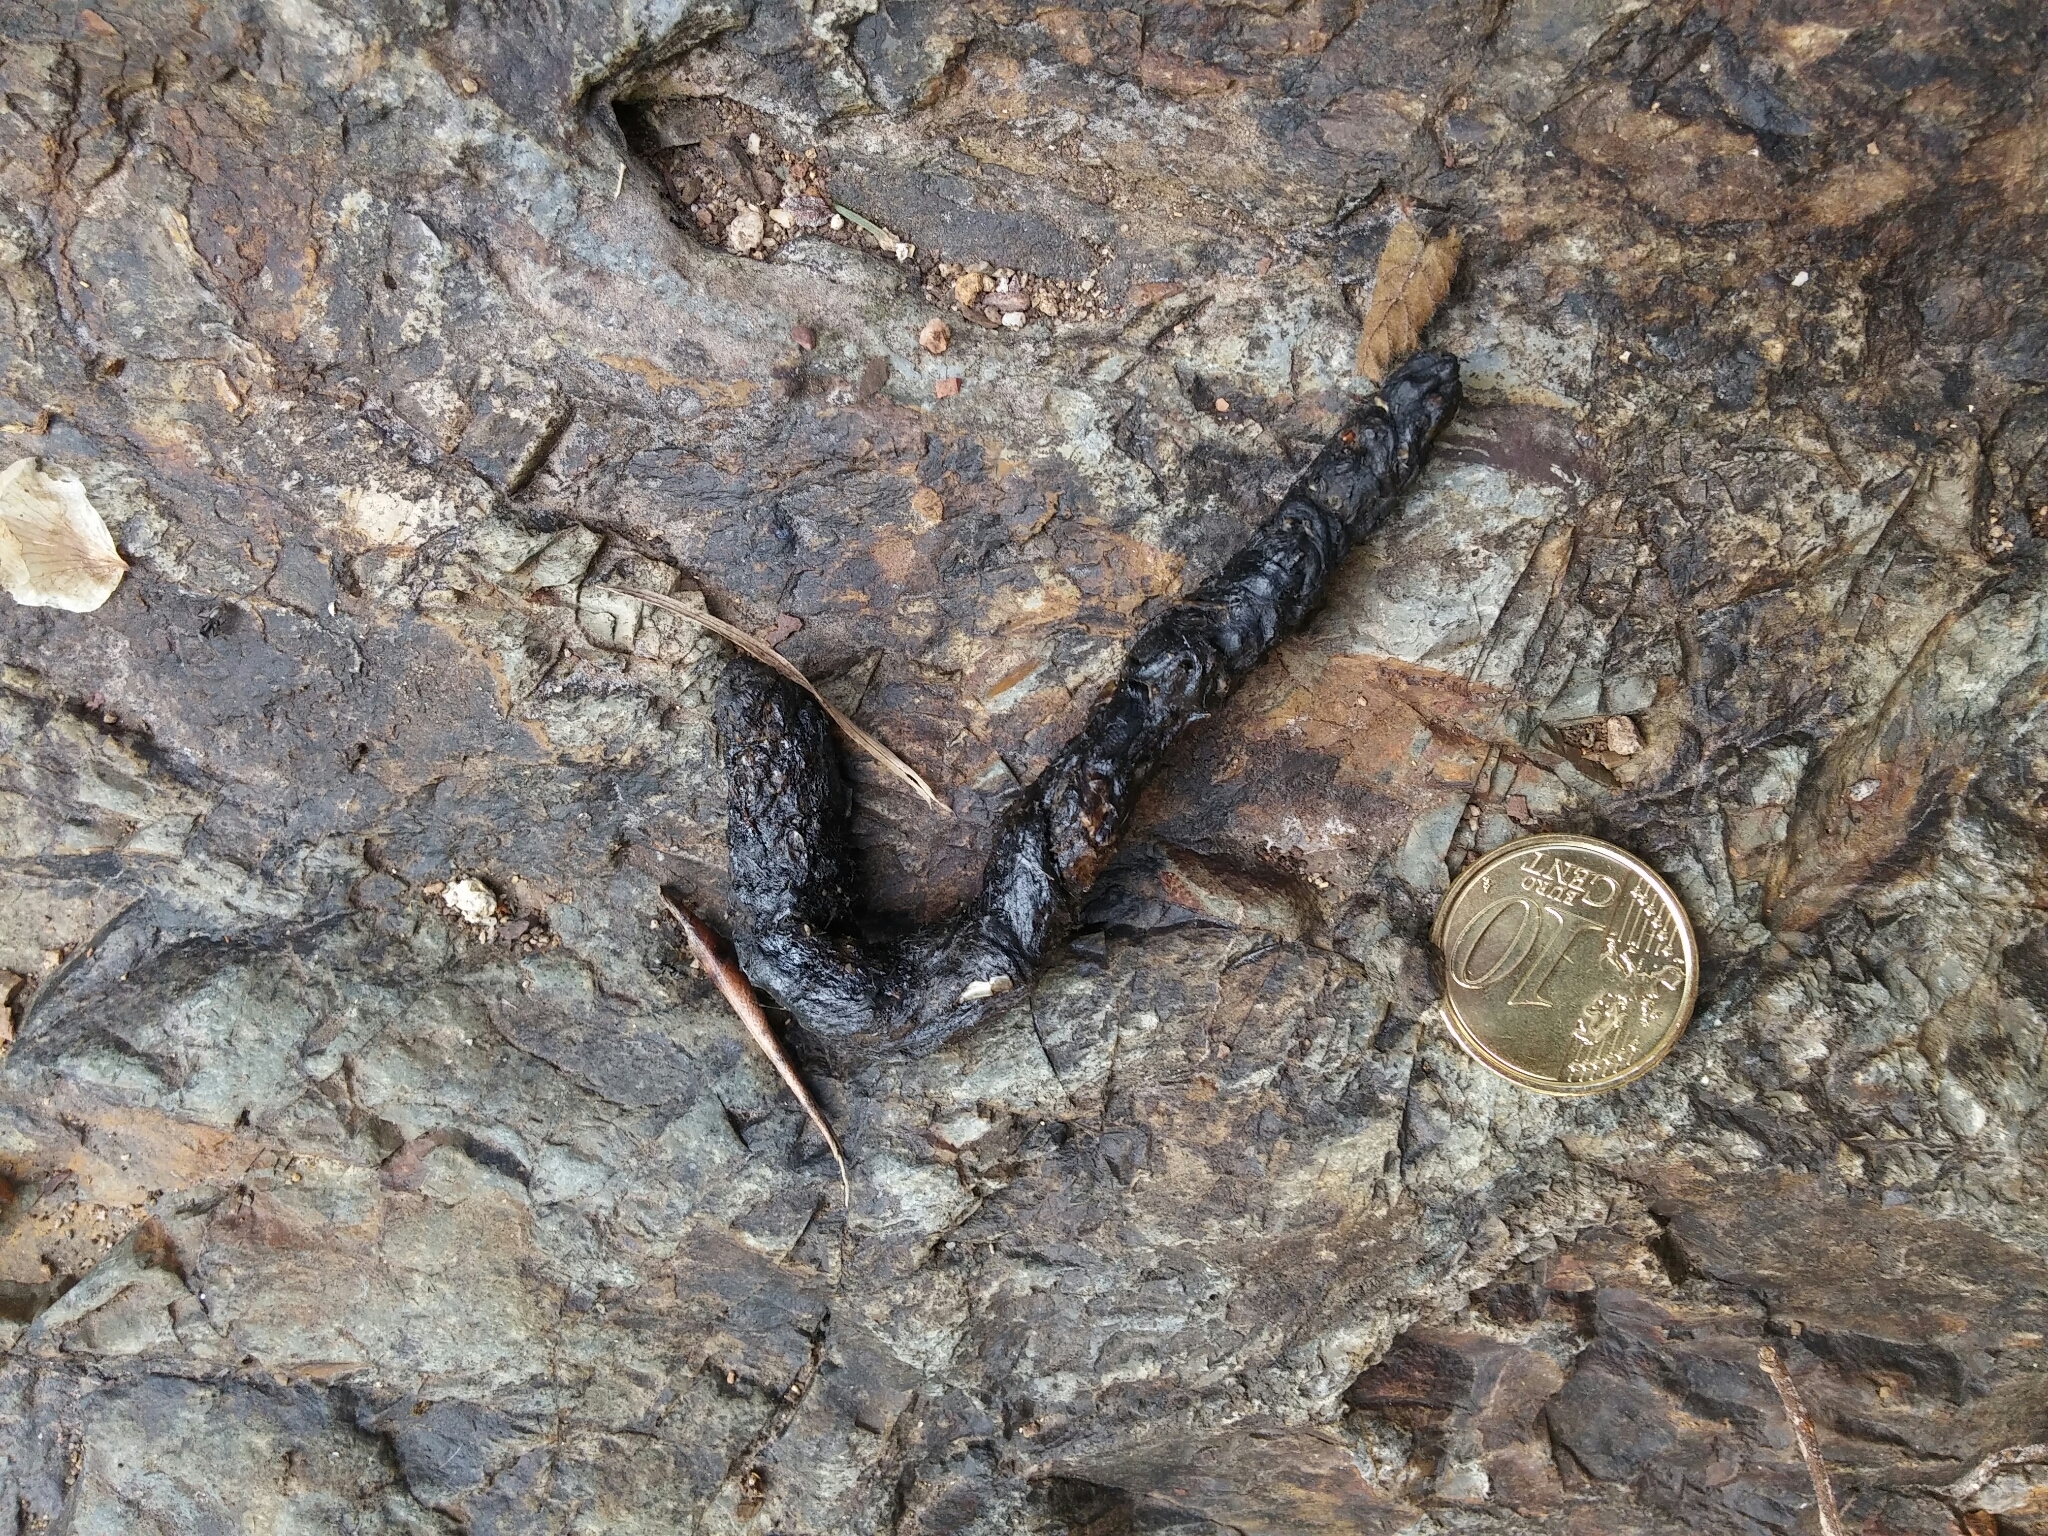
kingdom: Animalia
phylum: Chordata
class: Mammalia
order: Carnivora
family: Mustelidae
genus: Martes
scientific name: Martes martes
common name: European pine marten
